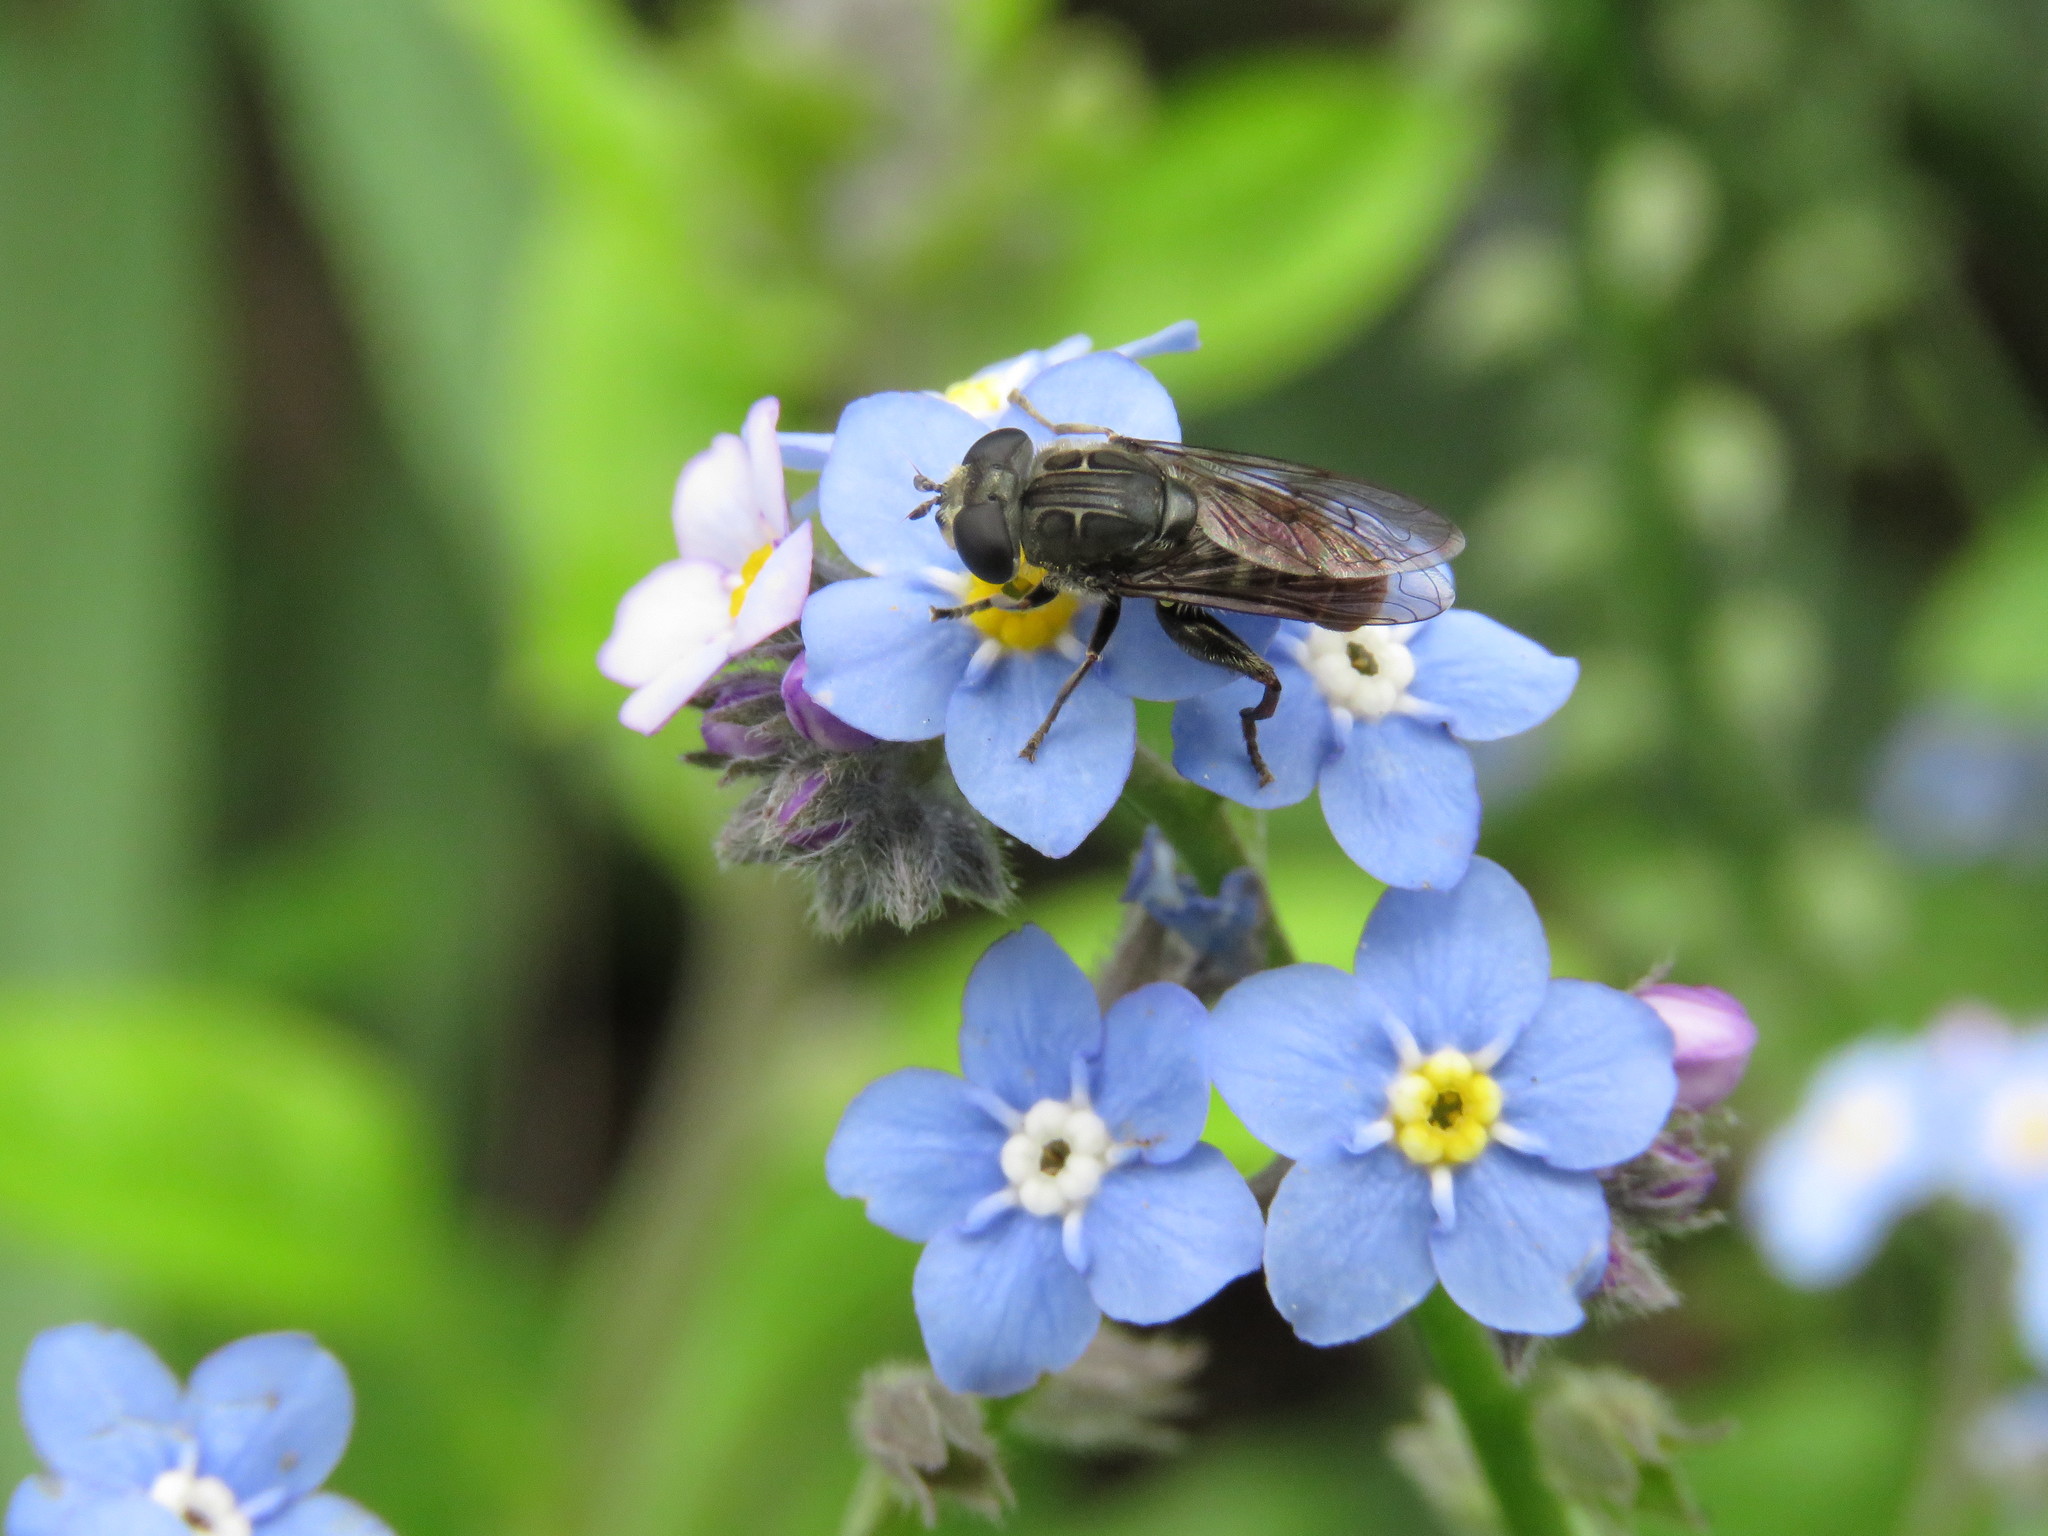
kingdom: Animalia
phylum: Arthropoda
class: Insecta
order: Diptera
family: Syrphidae
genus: Asemosyrphus
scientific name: Asemosyrphus
